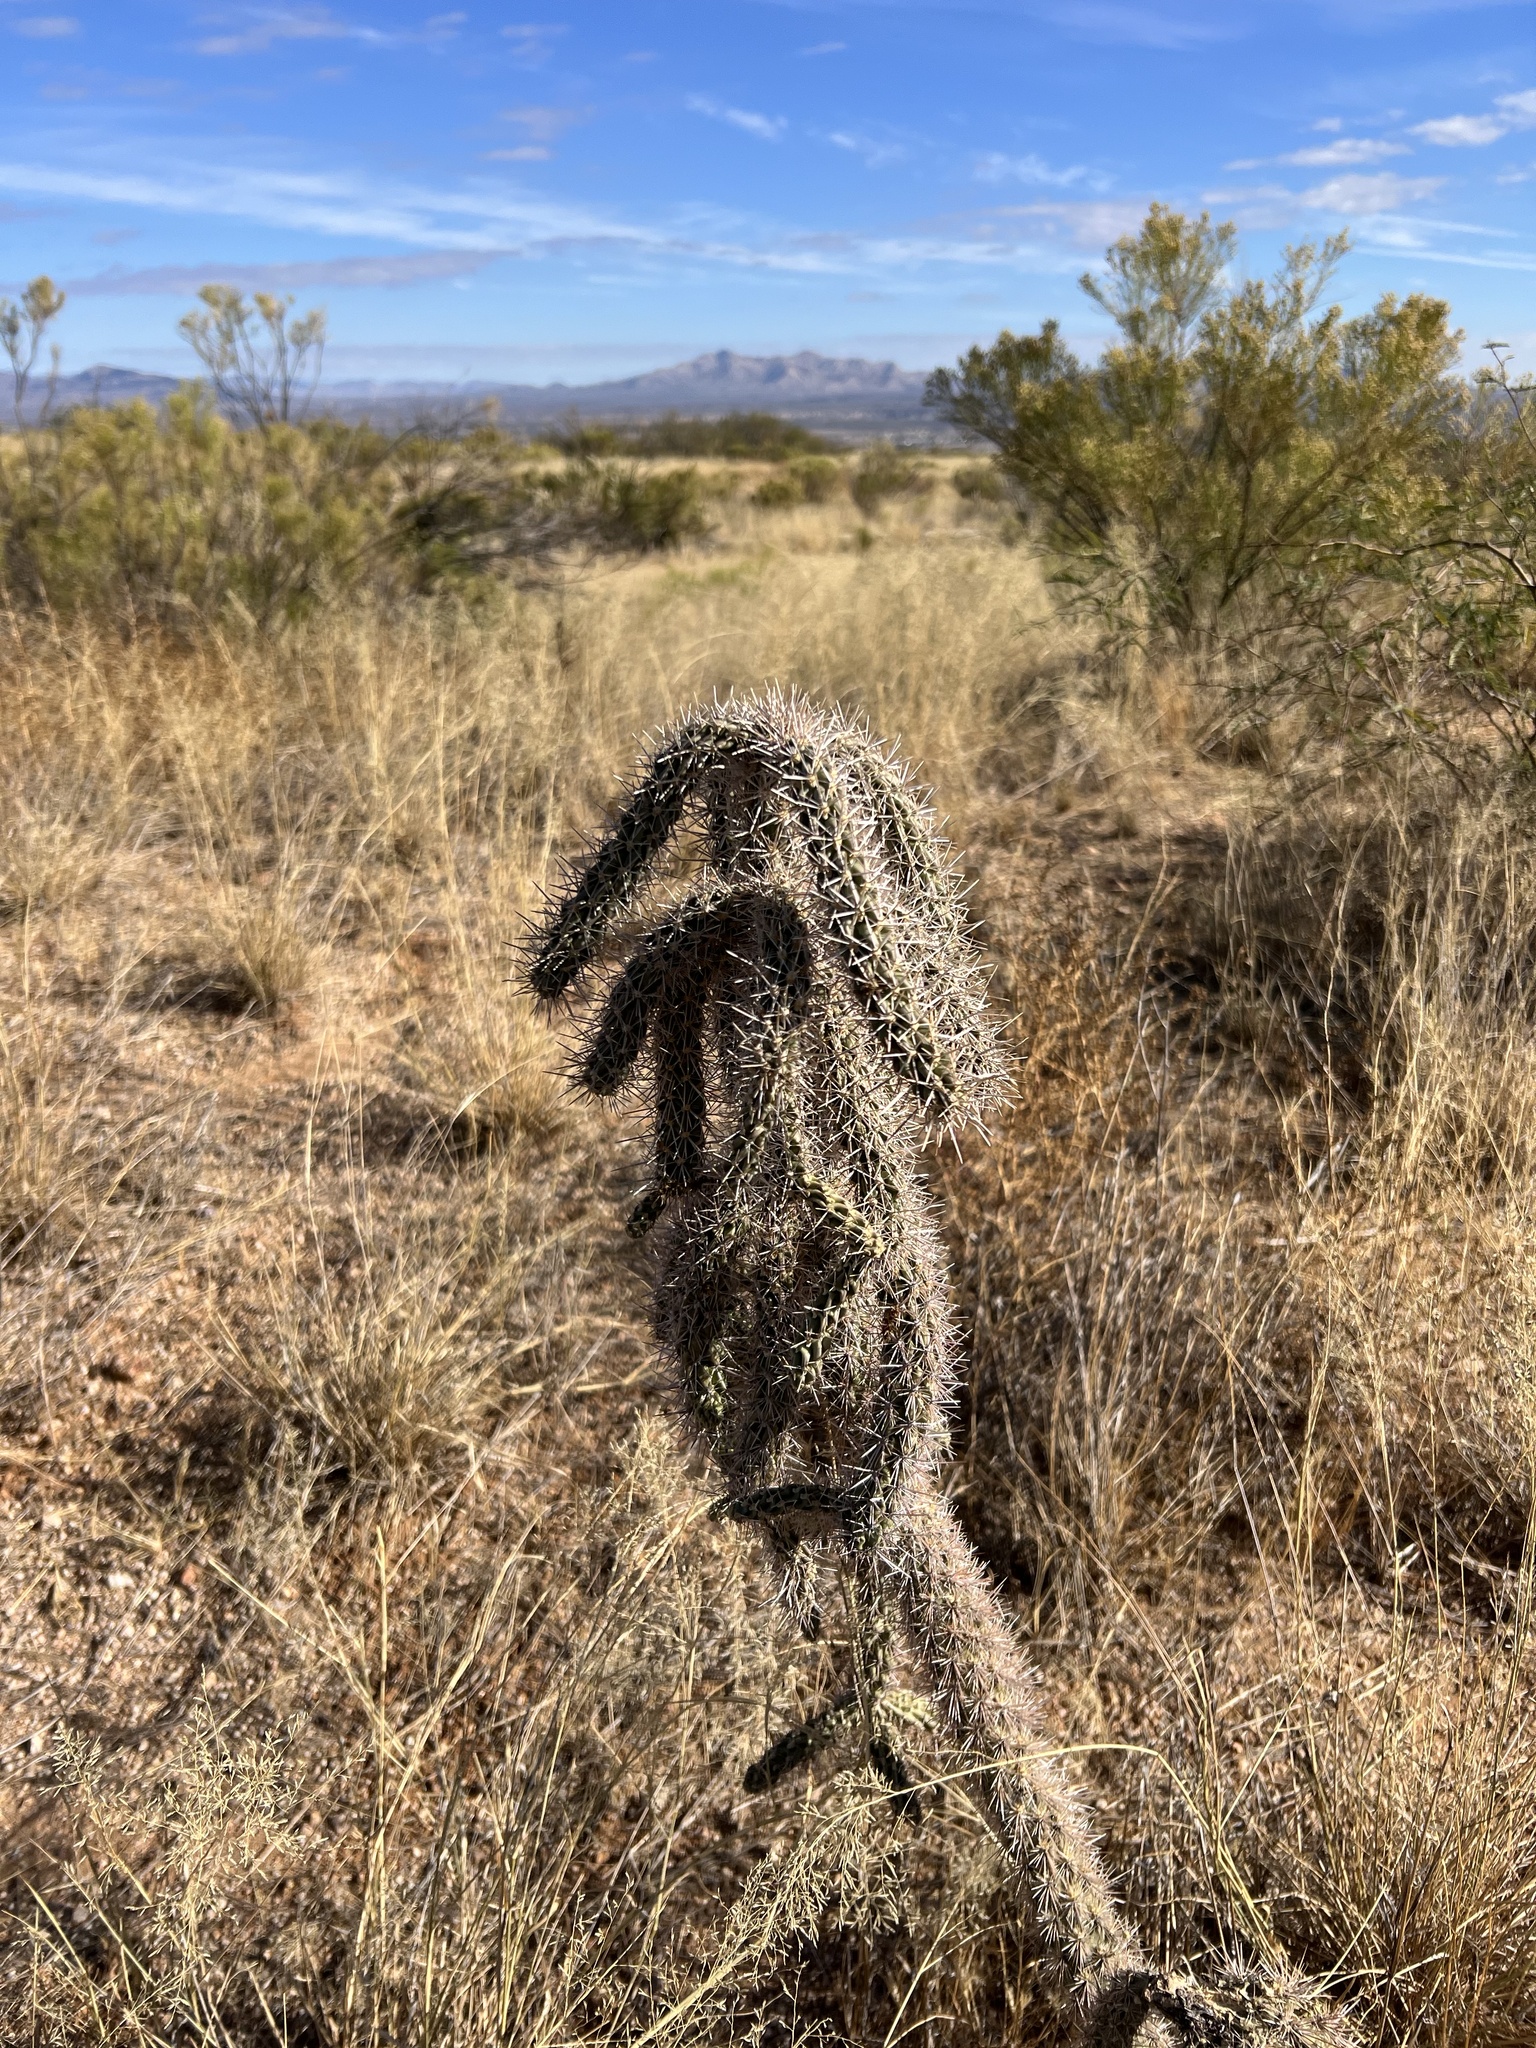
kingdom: Plantae
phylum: Tracheophyta
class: Magnoliopsida
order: Caryophyllales
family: Cactaceae
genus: Cylindropuntia
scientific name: Cylindropuntia imbricata
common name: Candelabrum cactus
